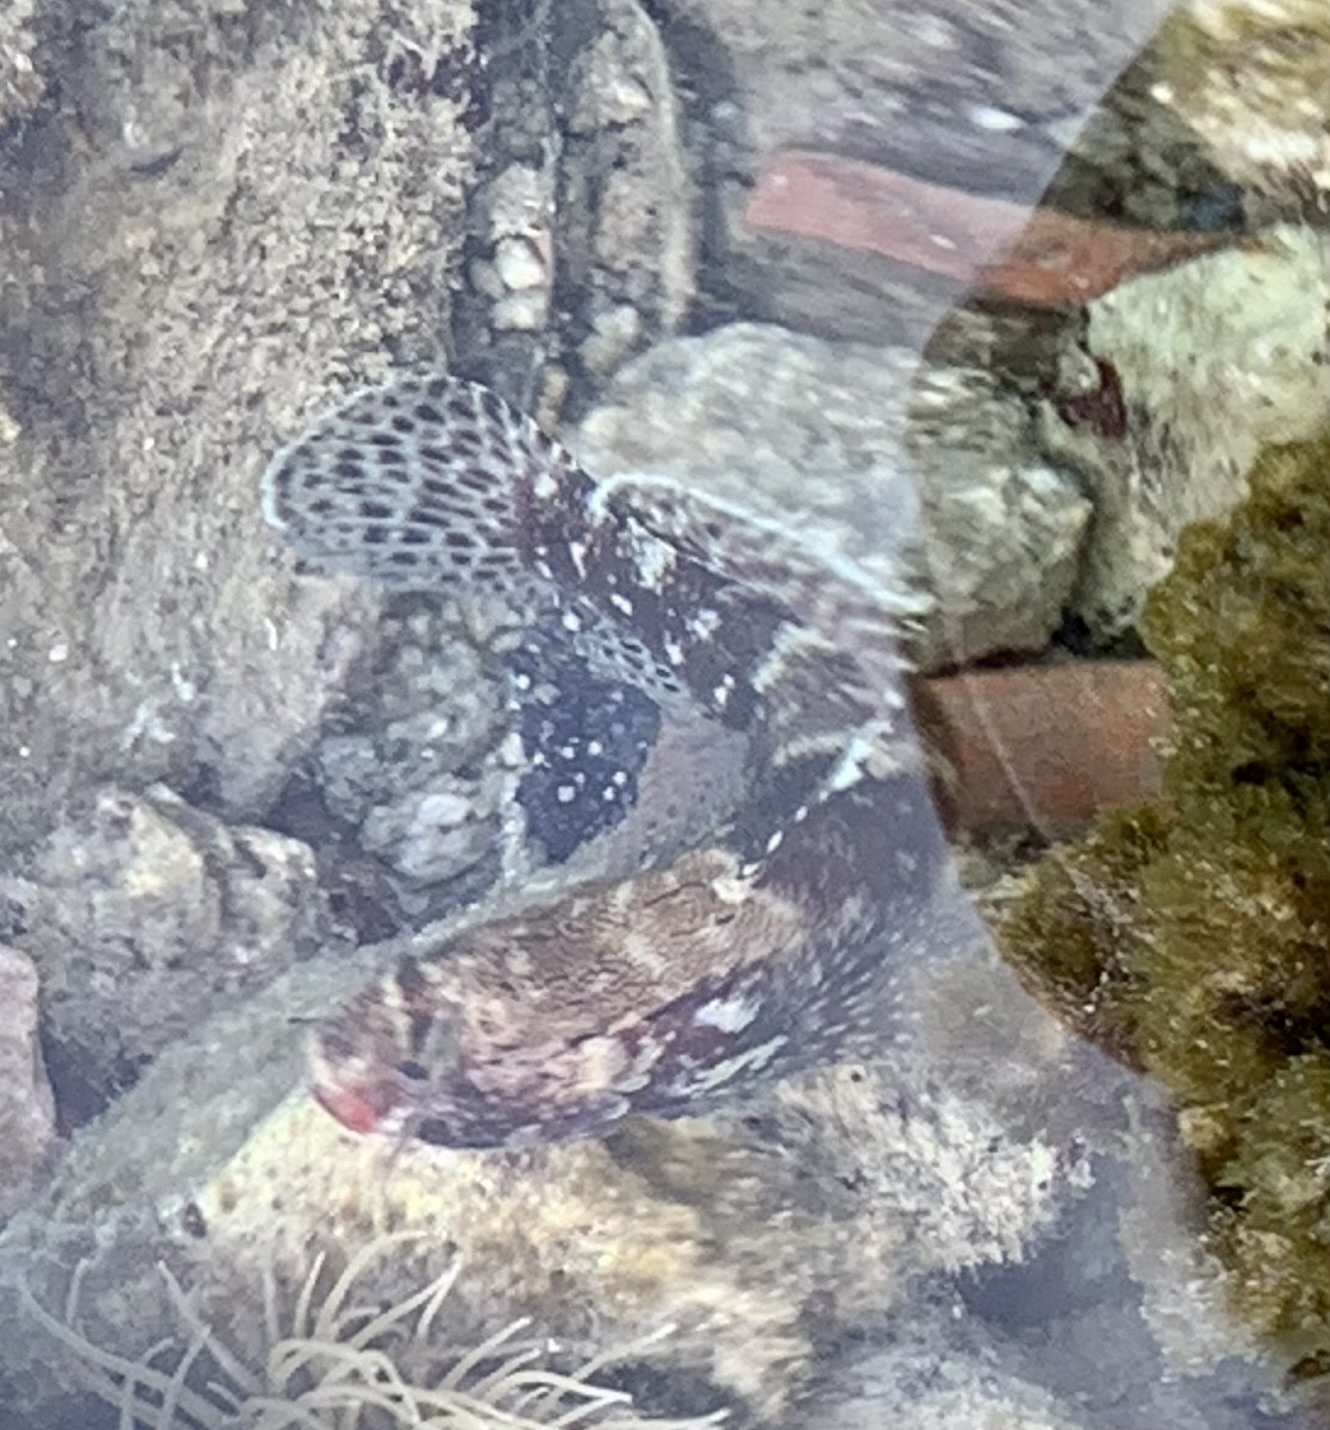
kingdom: Animalia
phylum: Chordata
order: Perciformes
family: Gobiidae
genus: Gobius
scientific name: Gobius cruentatus
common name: Red-mouthed goby
